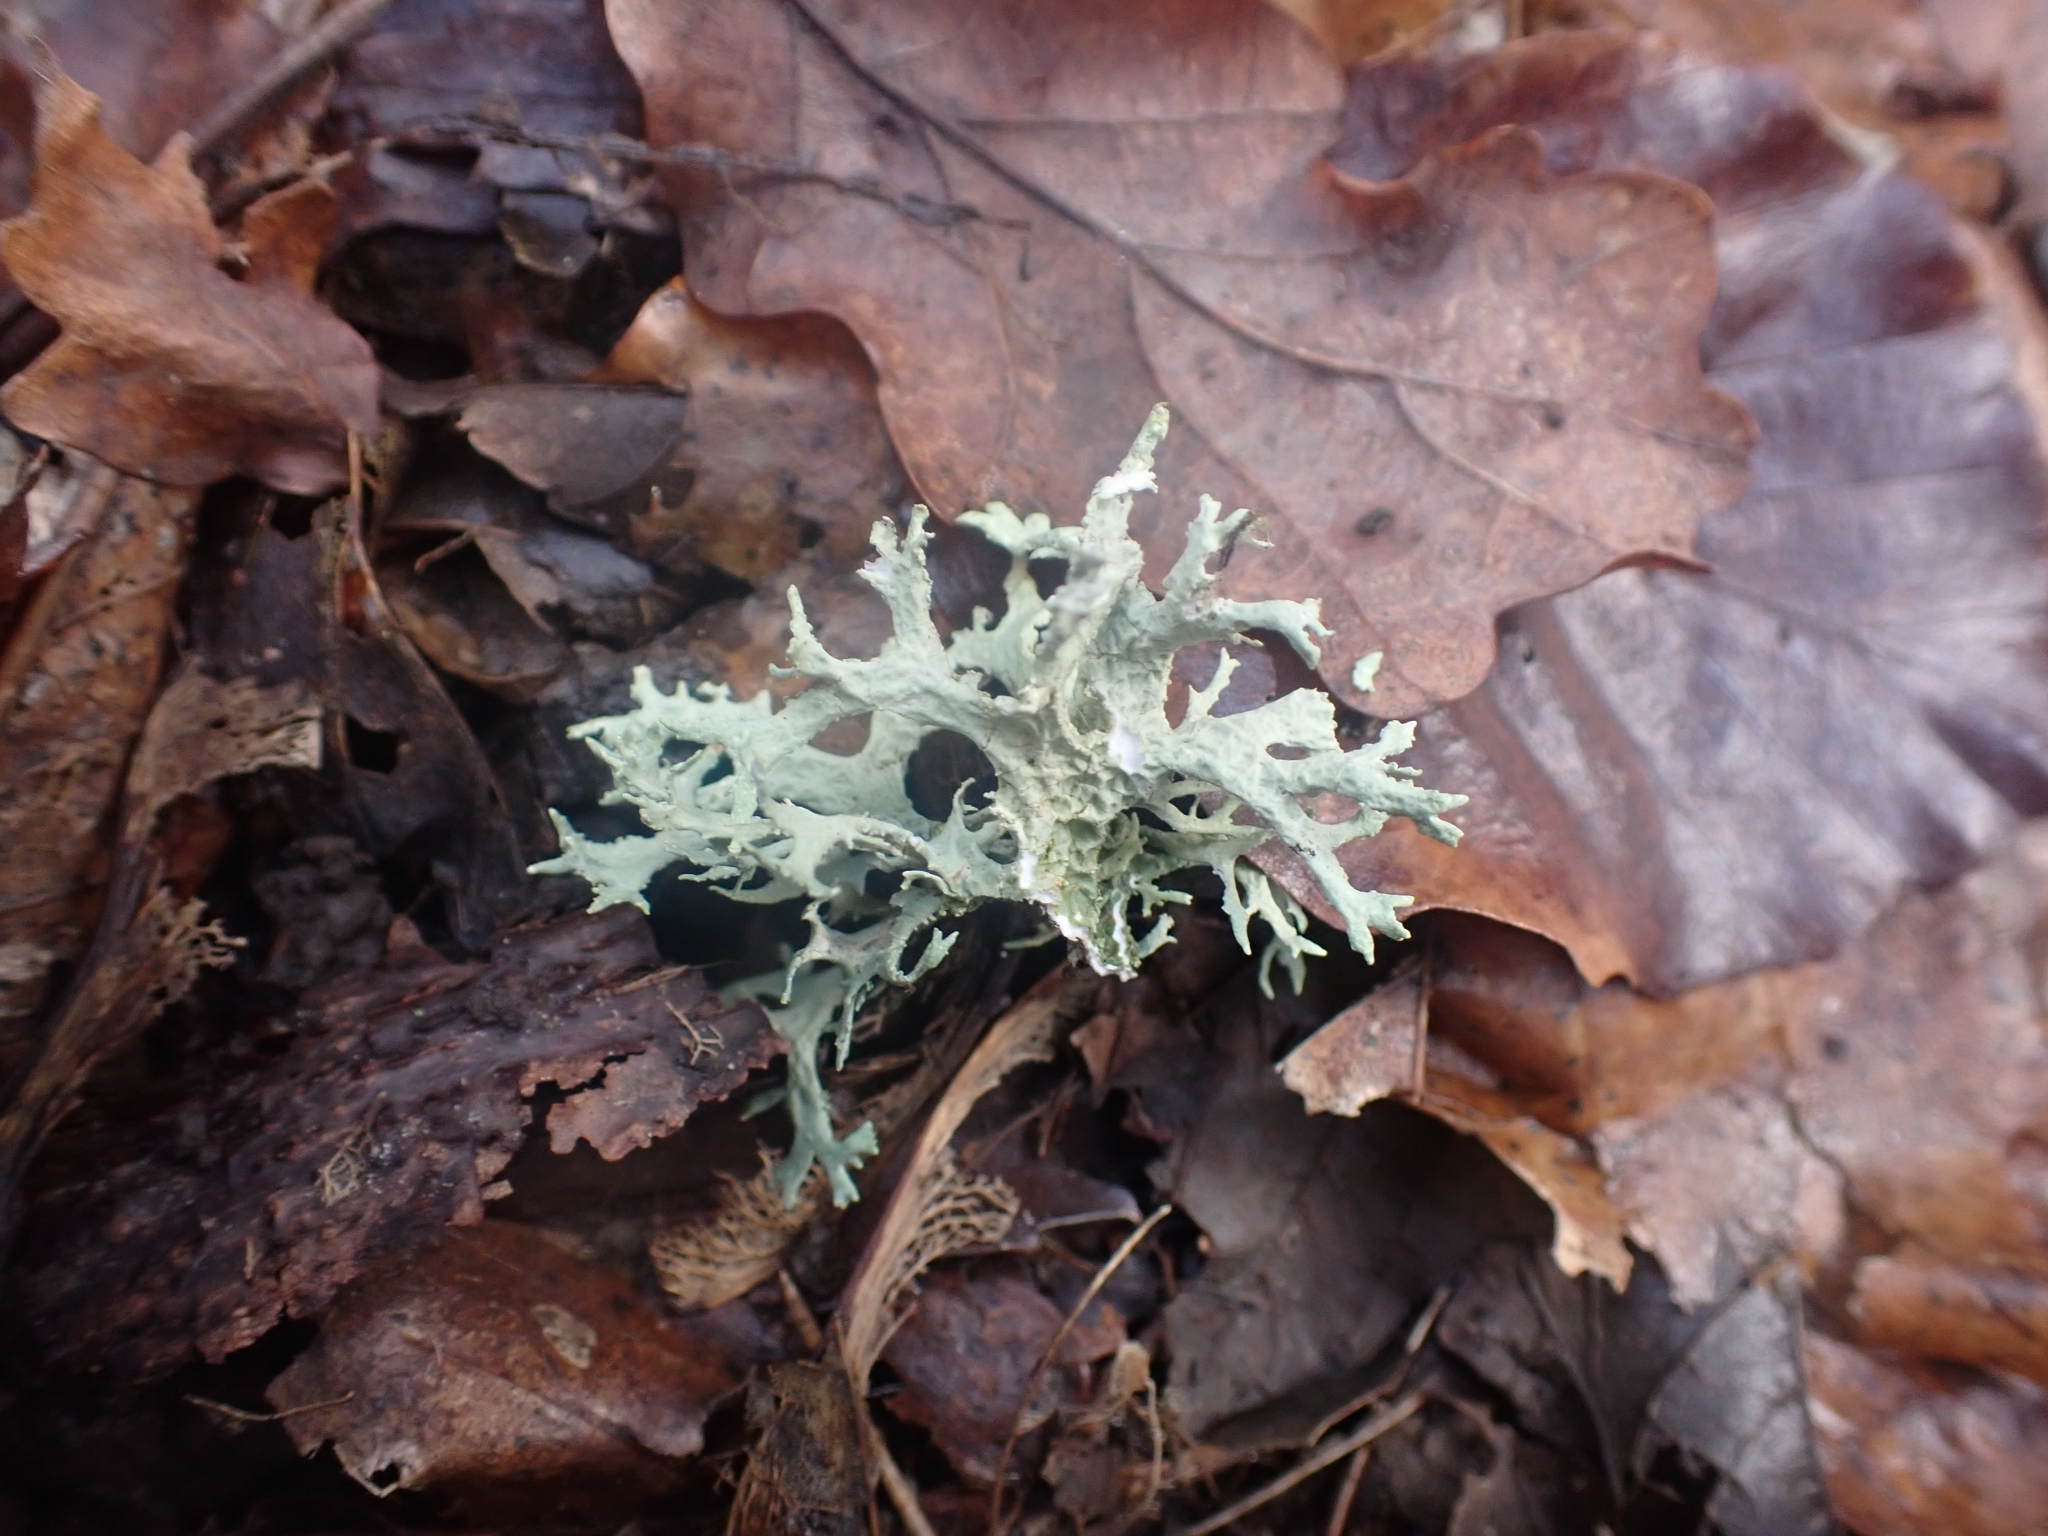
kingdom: Fungi
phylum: Ascomycota
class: Lecanoromycetes
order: Lecanorales
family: Parmeliaceae
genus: Evernia
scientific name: Evernia prunastri
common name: Oak moss
